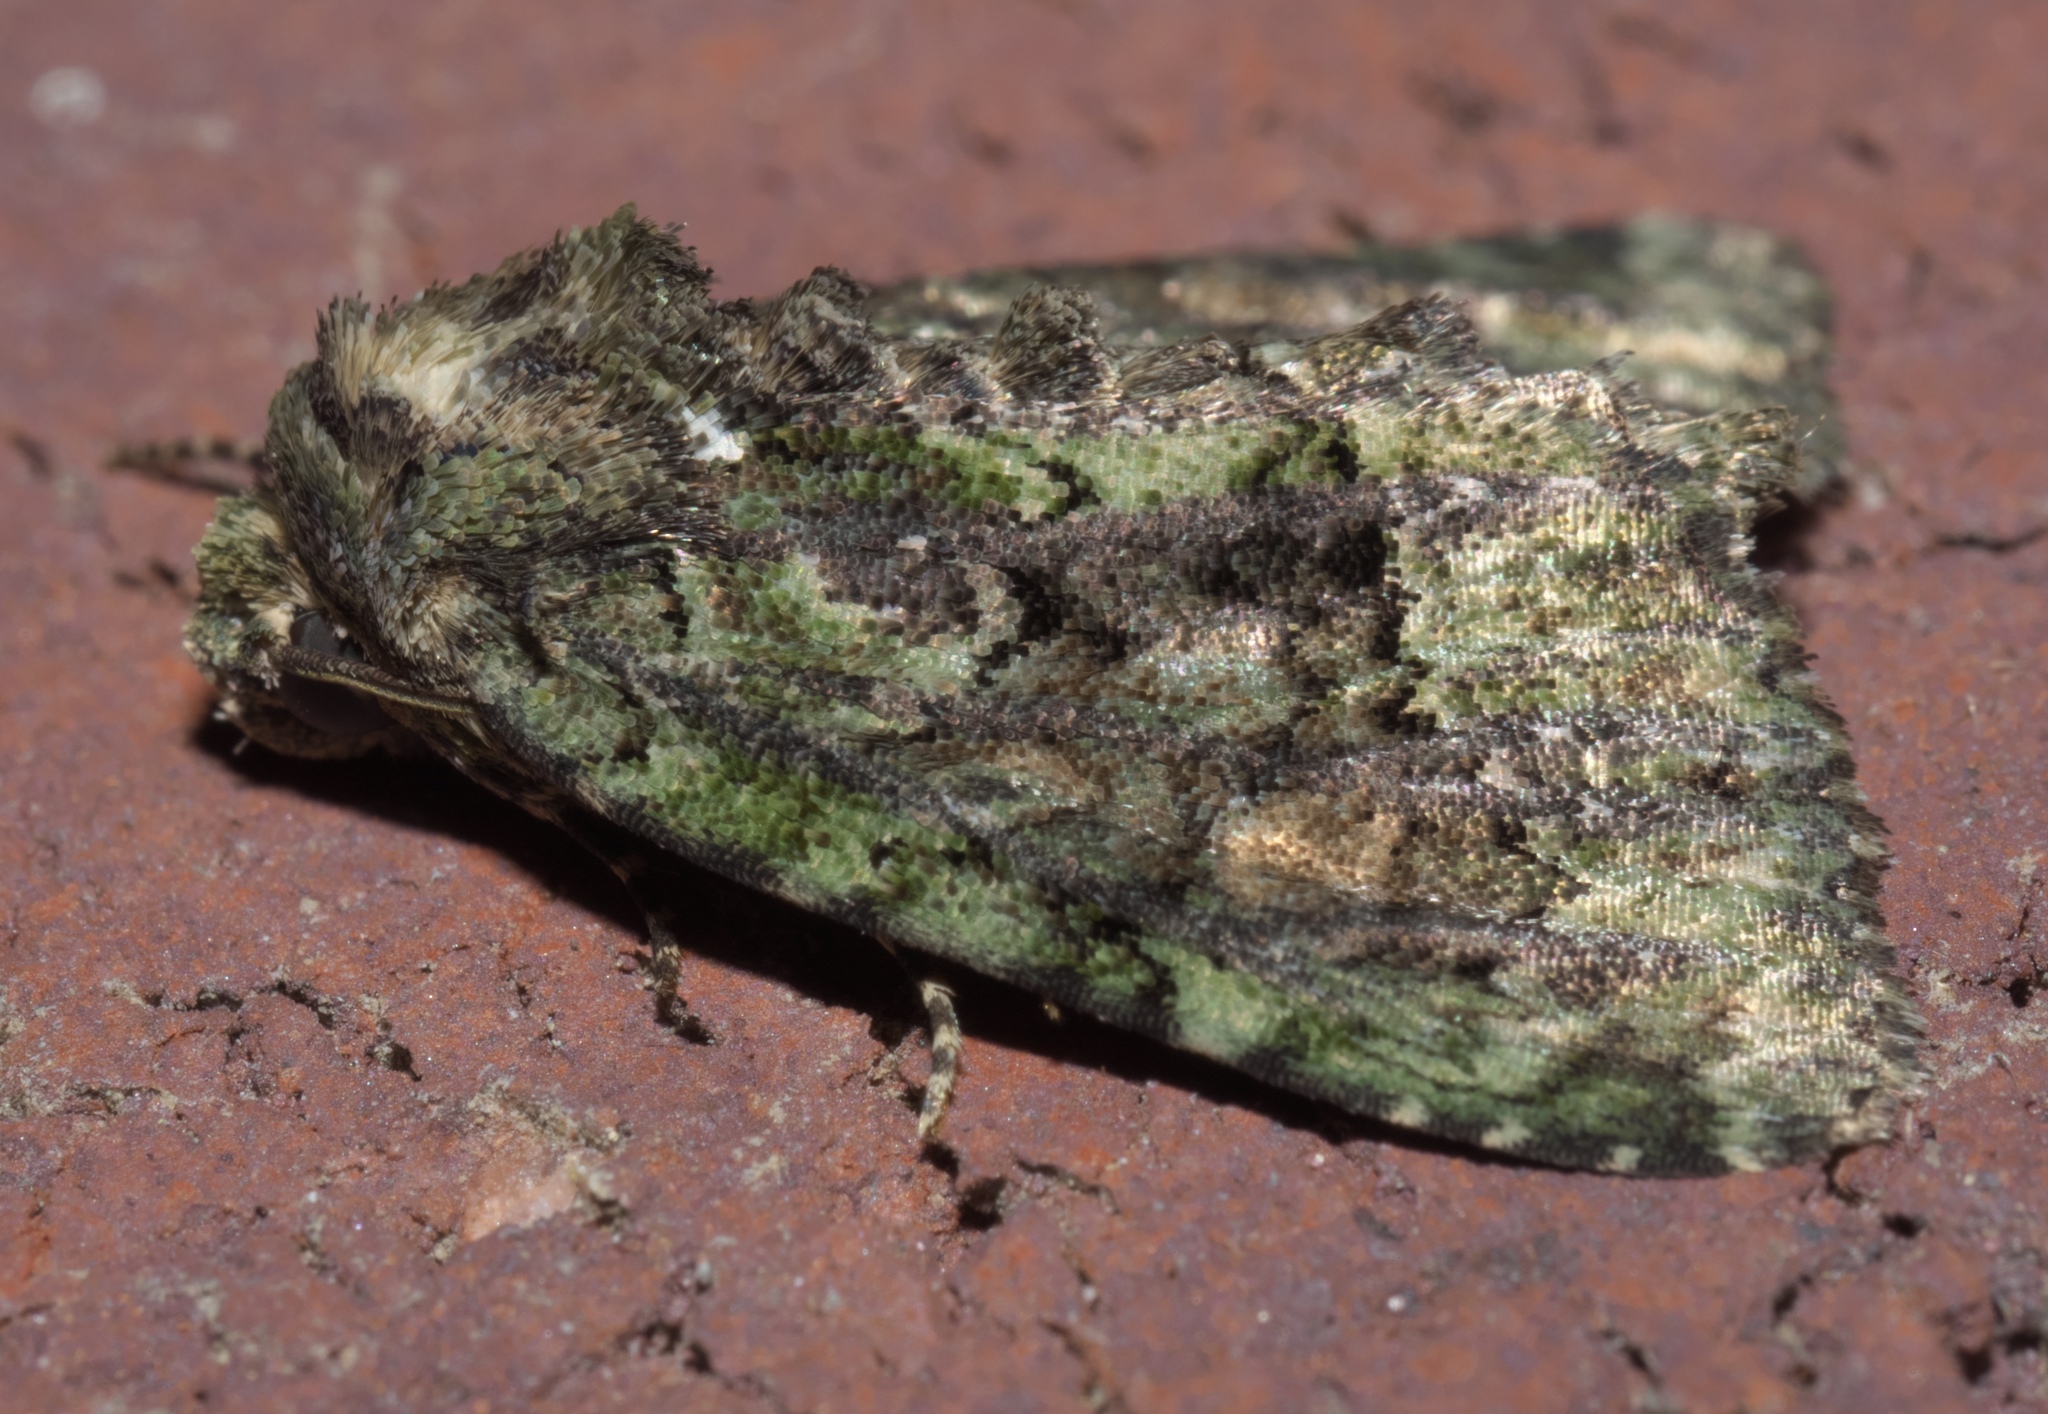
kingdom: Animalia
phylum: Arthropoda
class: Insecta
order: Lepidoptera
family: Noctuidae
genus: Phosphila
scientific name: Phosphila miselioides
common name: Spotted phosphila moth
